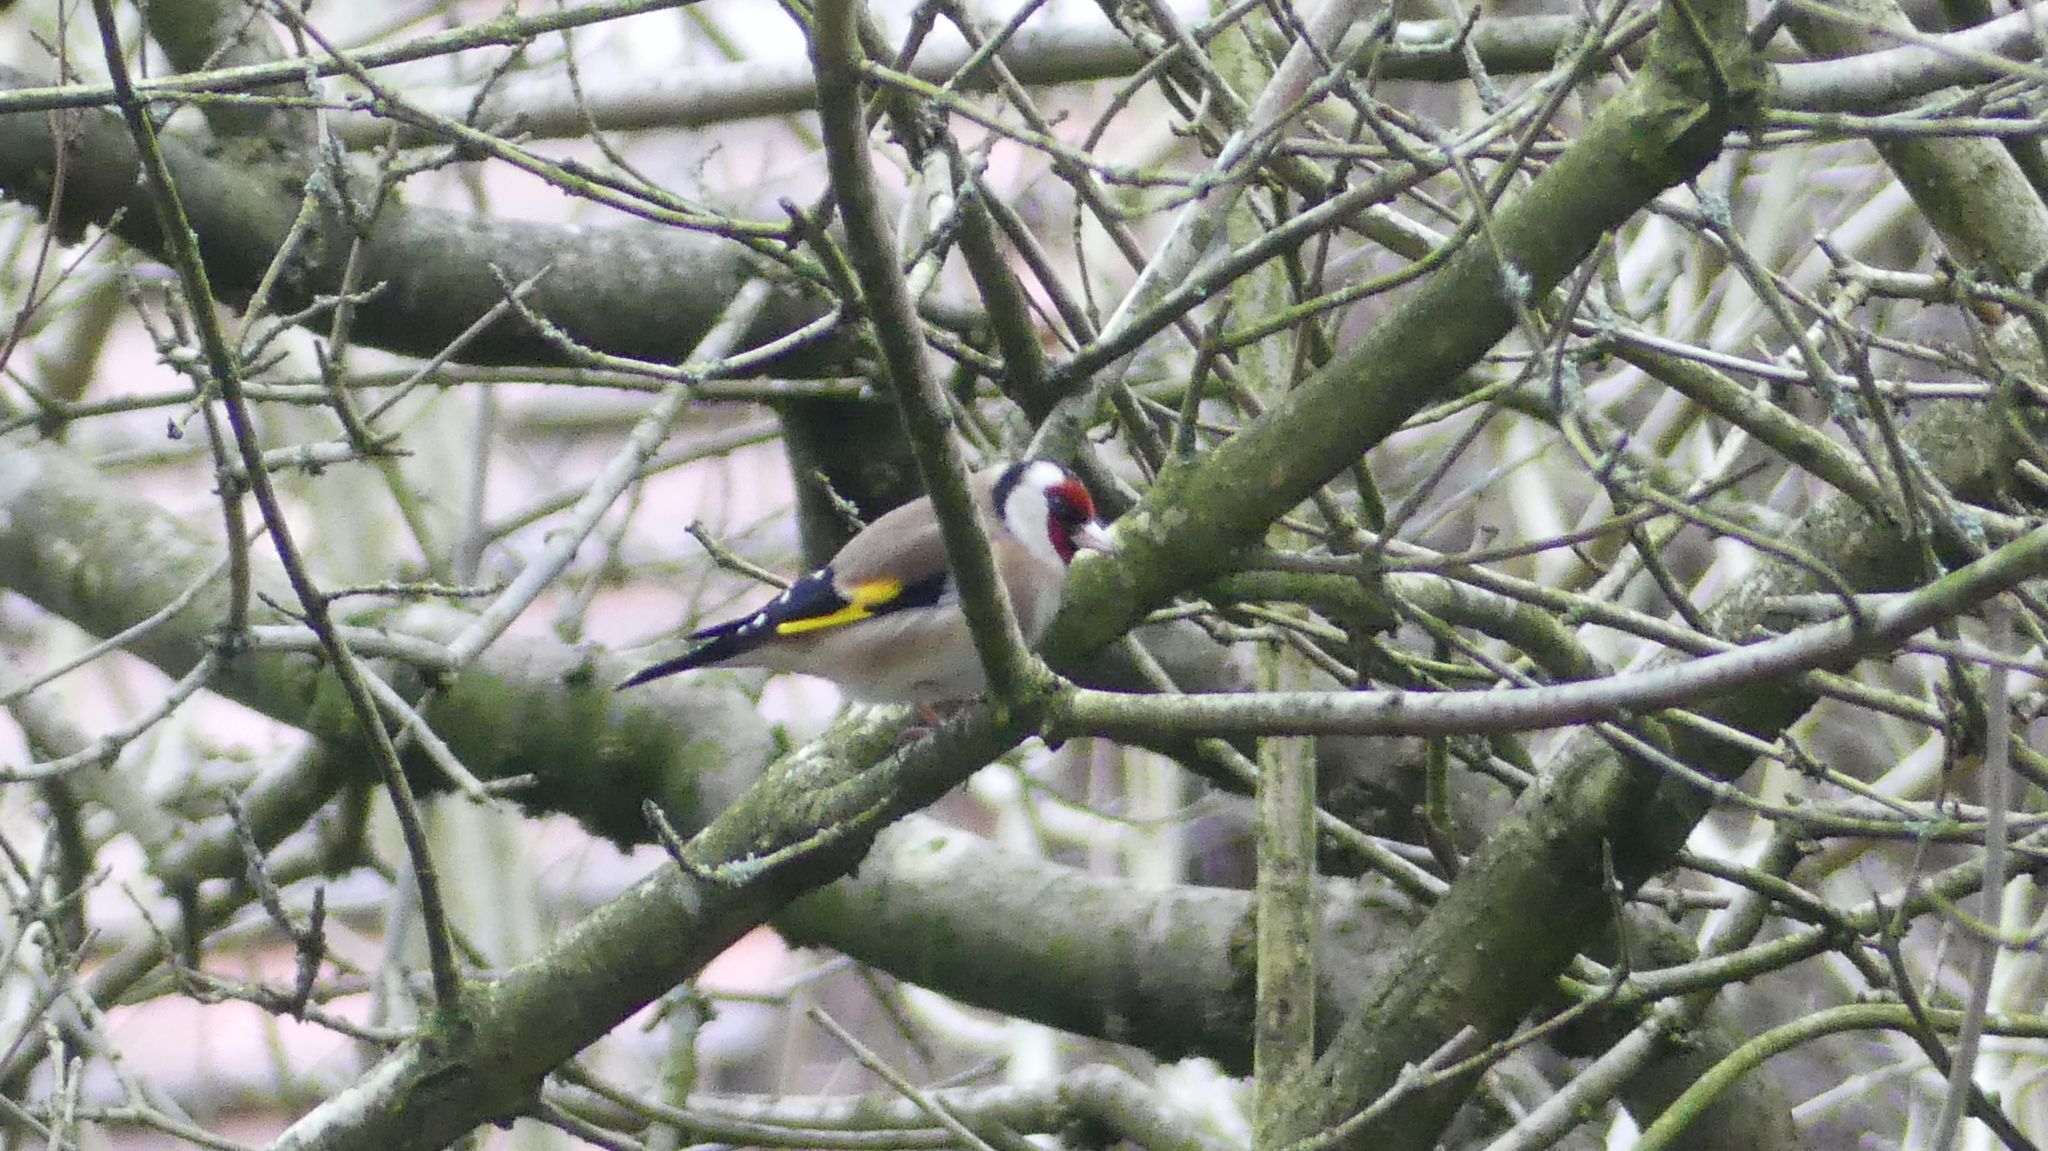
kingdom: Animalia
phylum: Chordata
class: Aves
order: Passeriformes
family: Fringillidae
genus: Carduelis
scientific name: Carduelis carduelis
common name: European goldfinch
